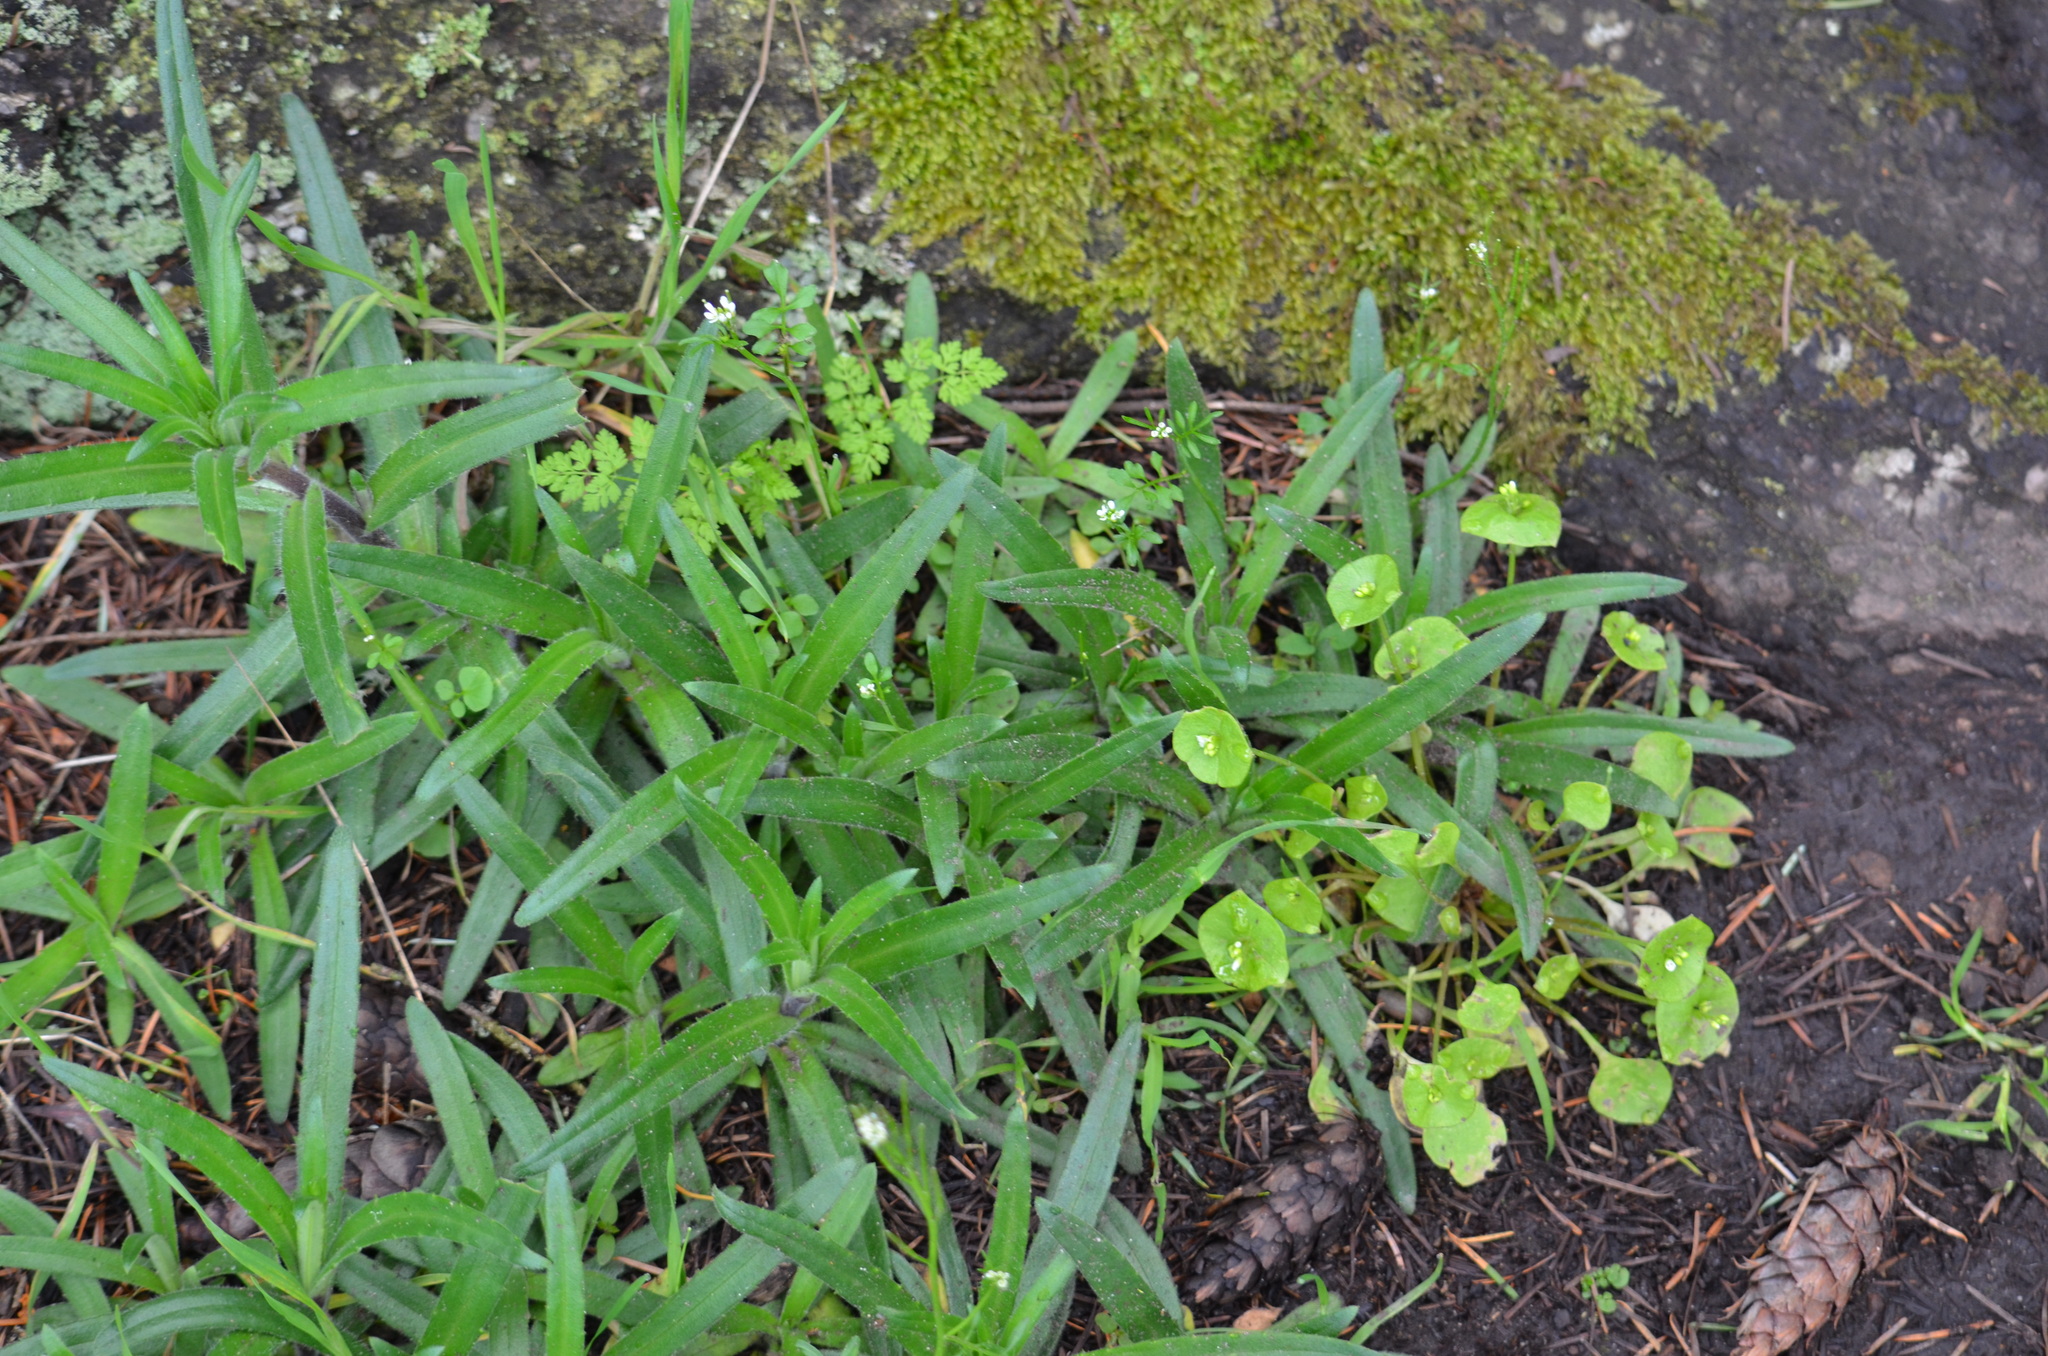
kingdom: Plantae
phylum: Tracheophyta
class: Magnoliopsida
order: Asterales
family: Asteraceae
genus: Anisocarpus
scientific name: Anisocarpus madioides
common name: Woodland madia
